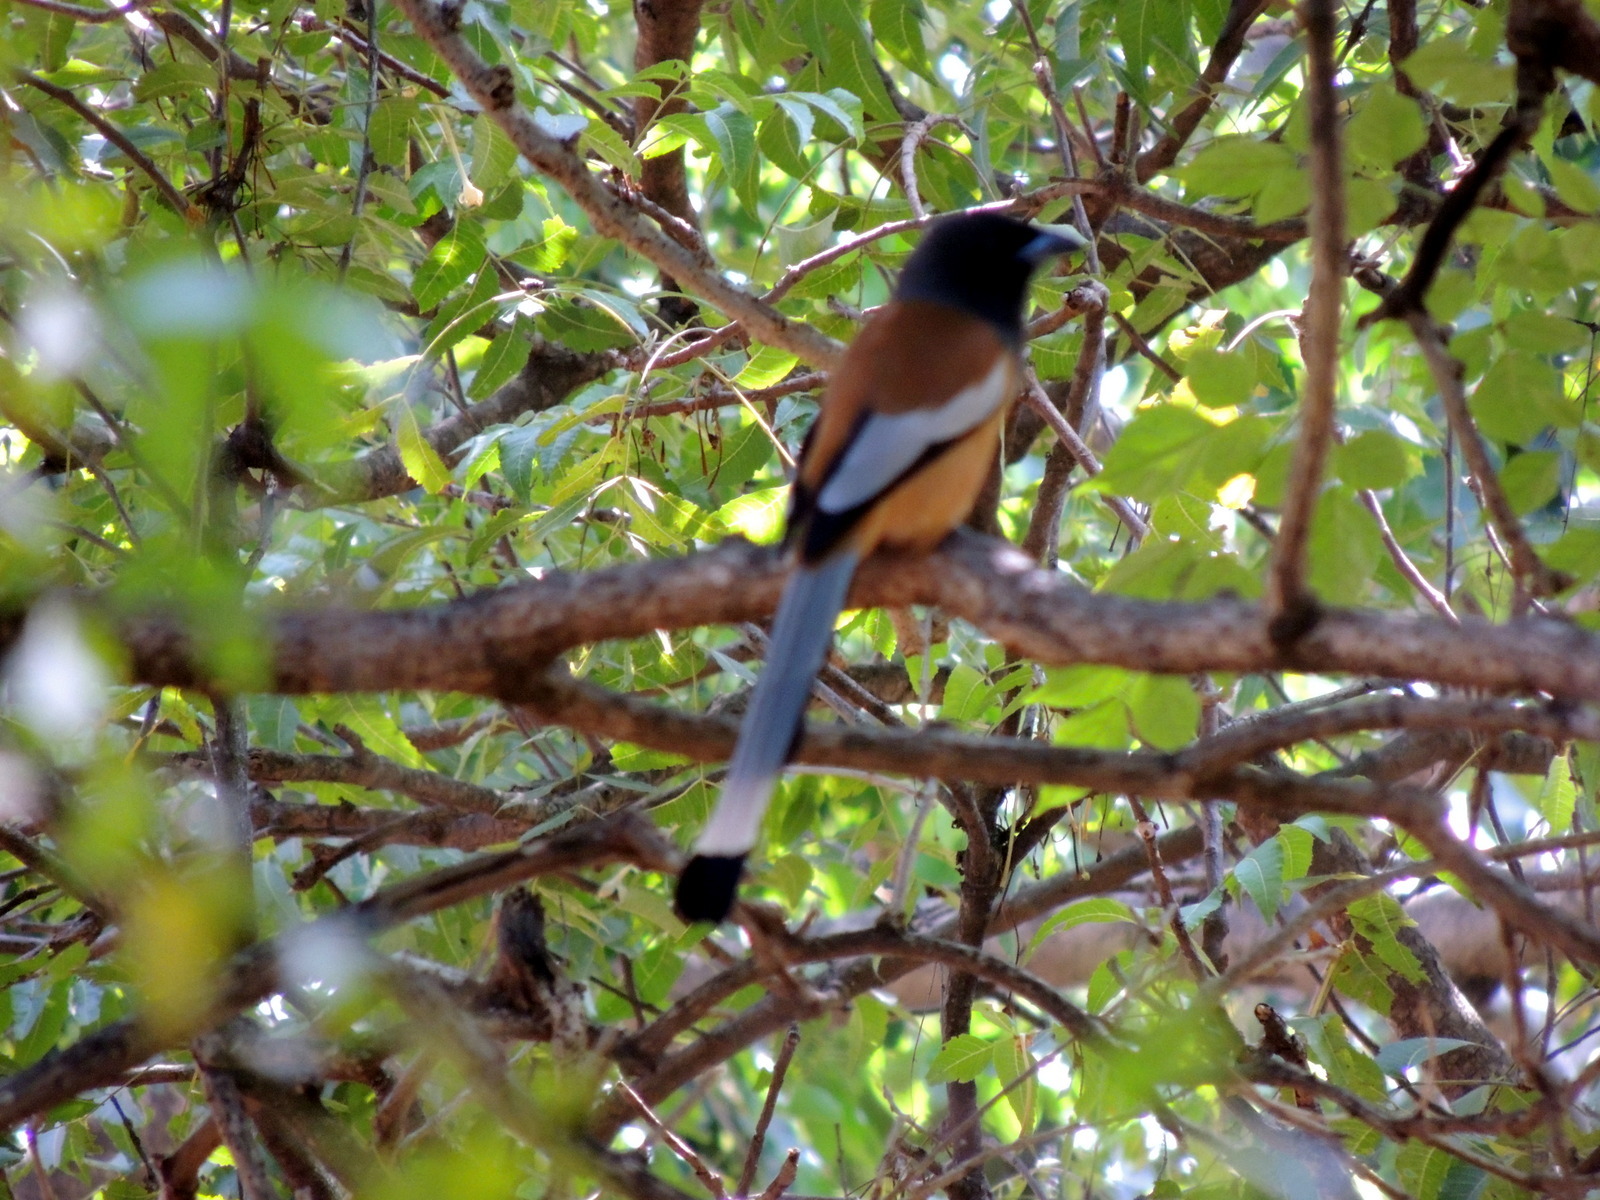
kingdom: Animalia
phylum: Chordata
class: Aves
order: Passeriformes
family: Corvidae
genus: Dendrocitta
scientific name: Dendrocitta vagabunda
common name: Rufous treepie
